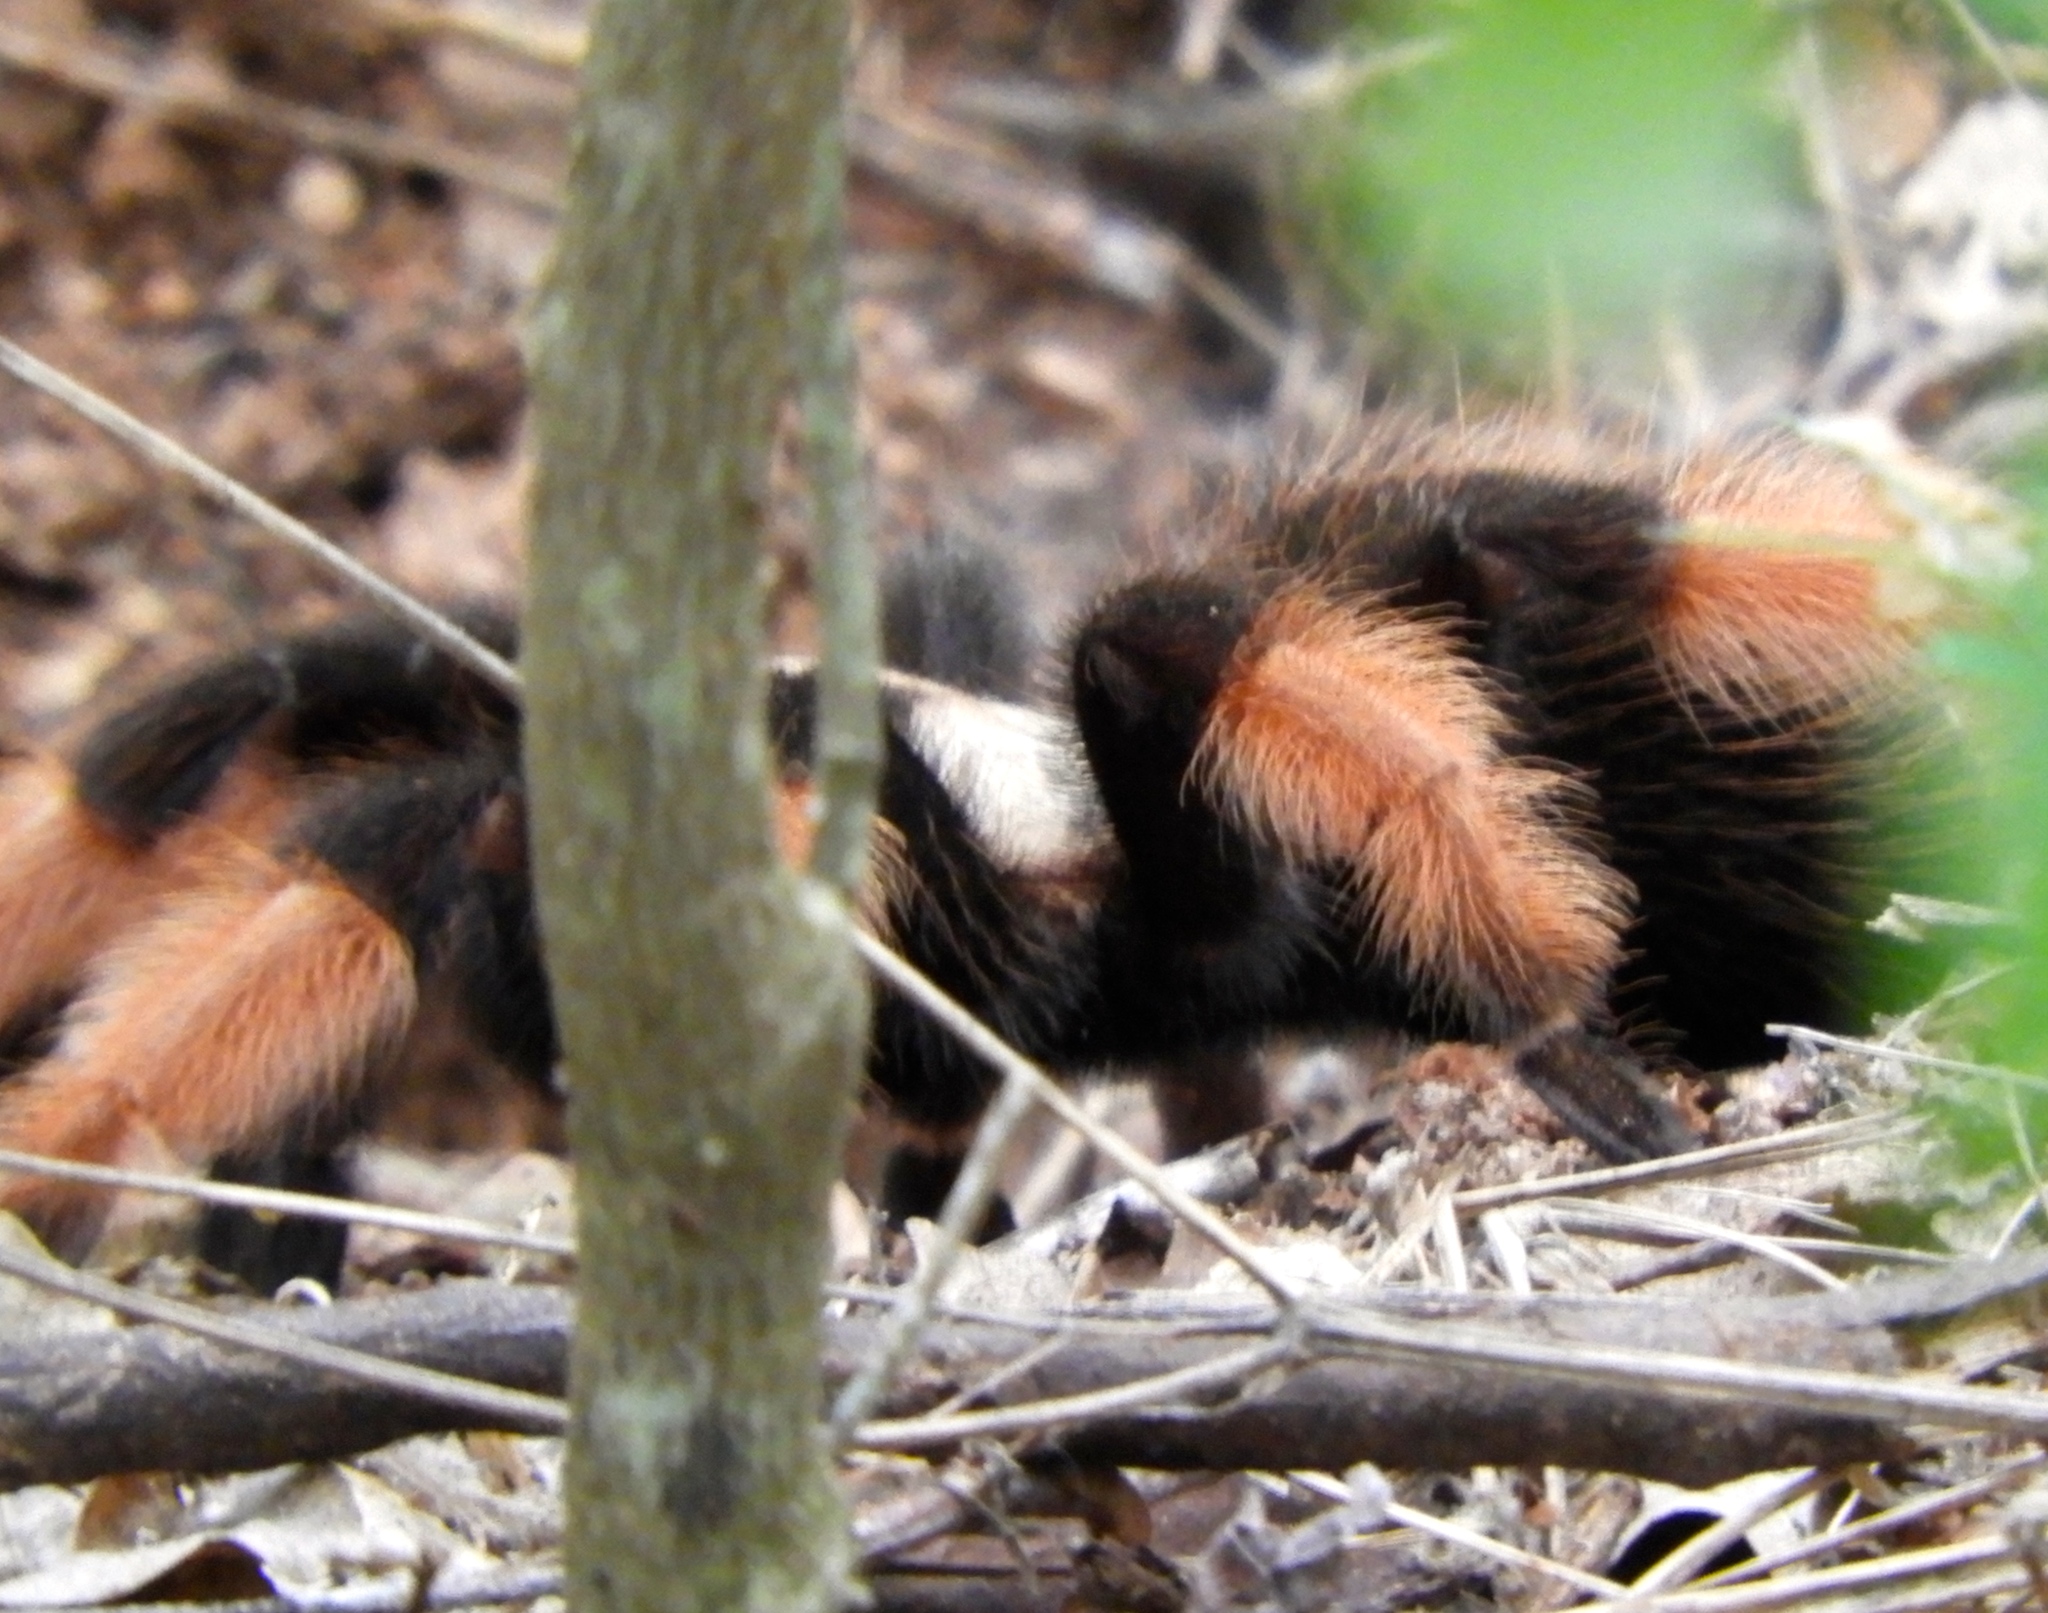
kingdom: Animalia
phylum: Arthropoda
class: Arachnida
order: Araneae
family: Theraphosidae
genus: Brachypelma
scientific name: Brachypelma emilia
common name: Mexican redleg
